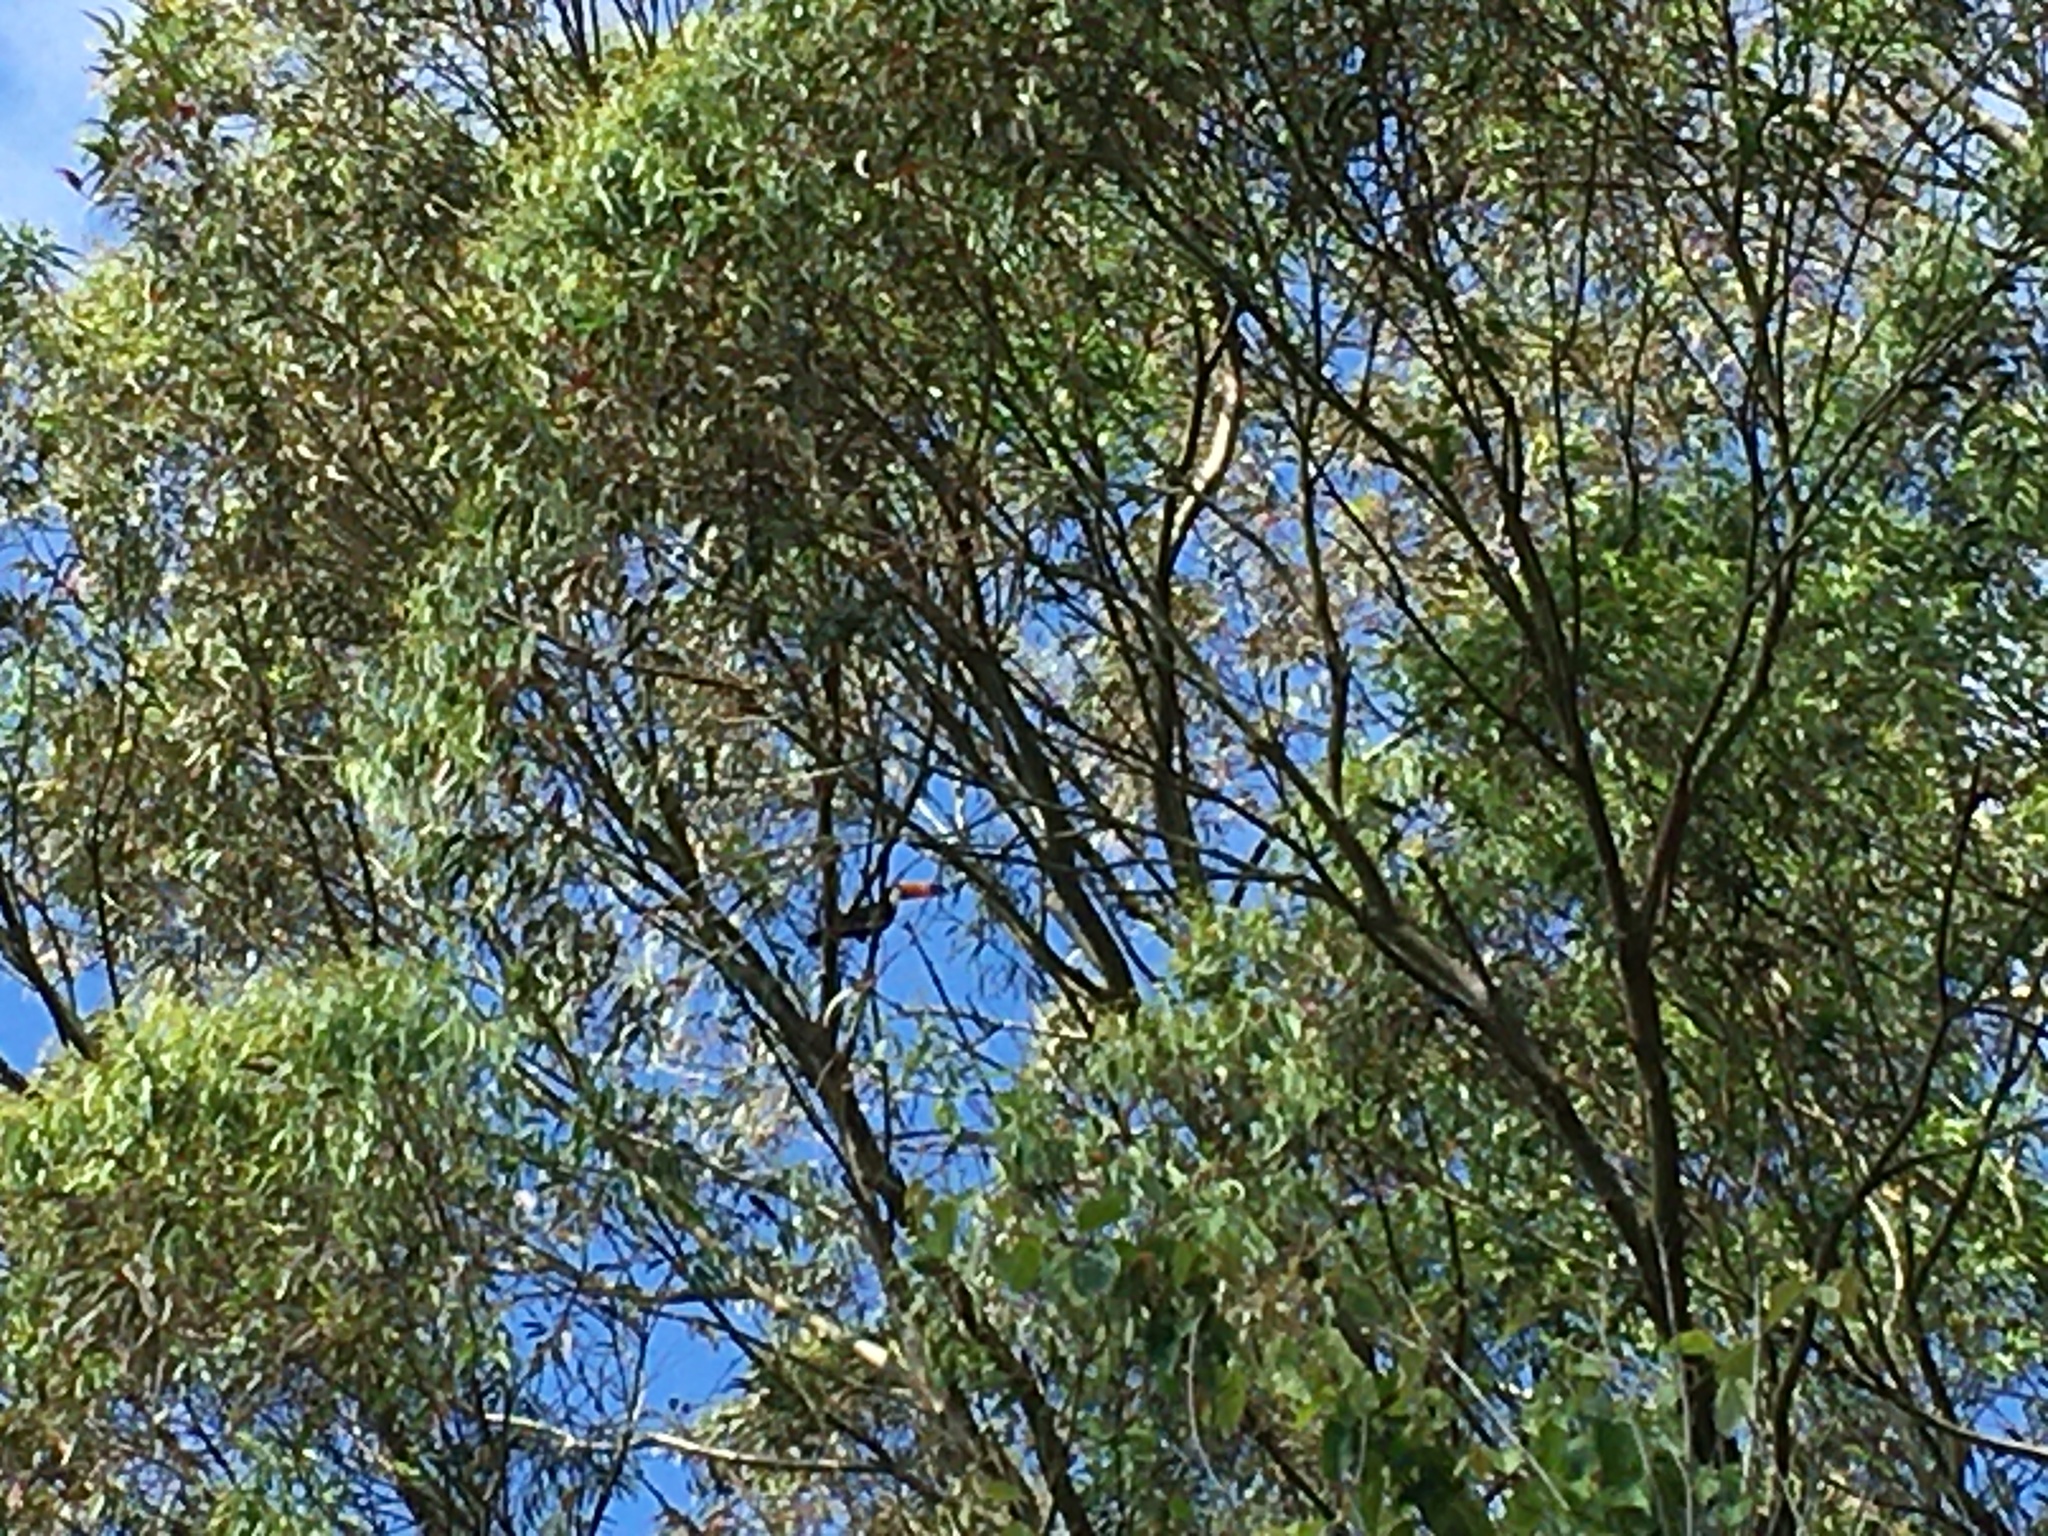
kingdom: Animalia
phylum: Chordata
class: Aves
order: Piciformes
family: Ramphastidae
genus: Ramphastos
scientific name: Ramphastos toco
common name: Toco toucan
